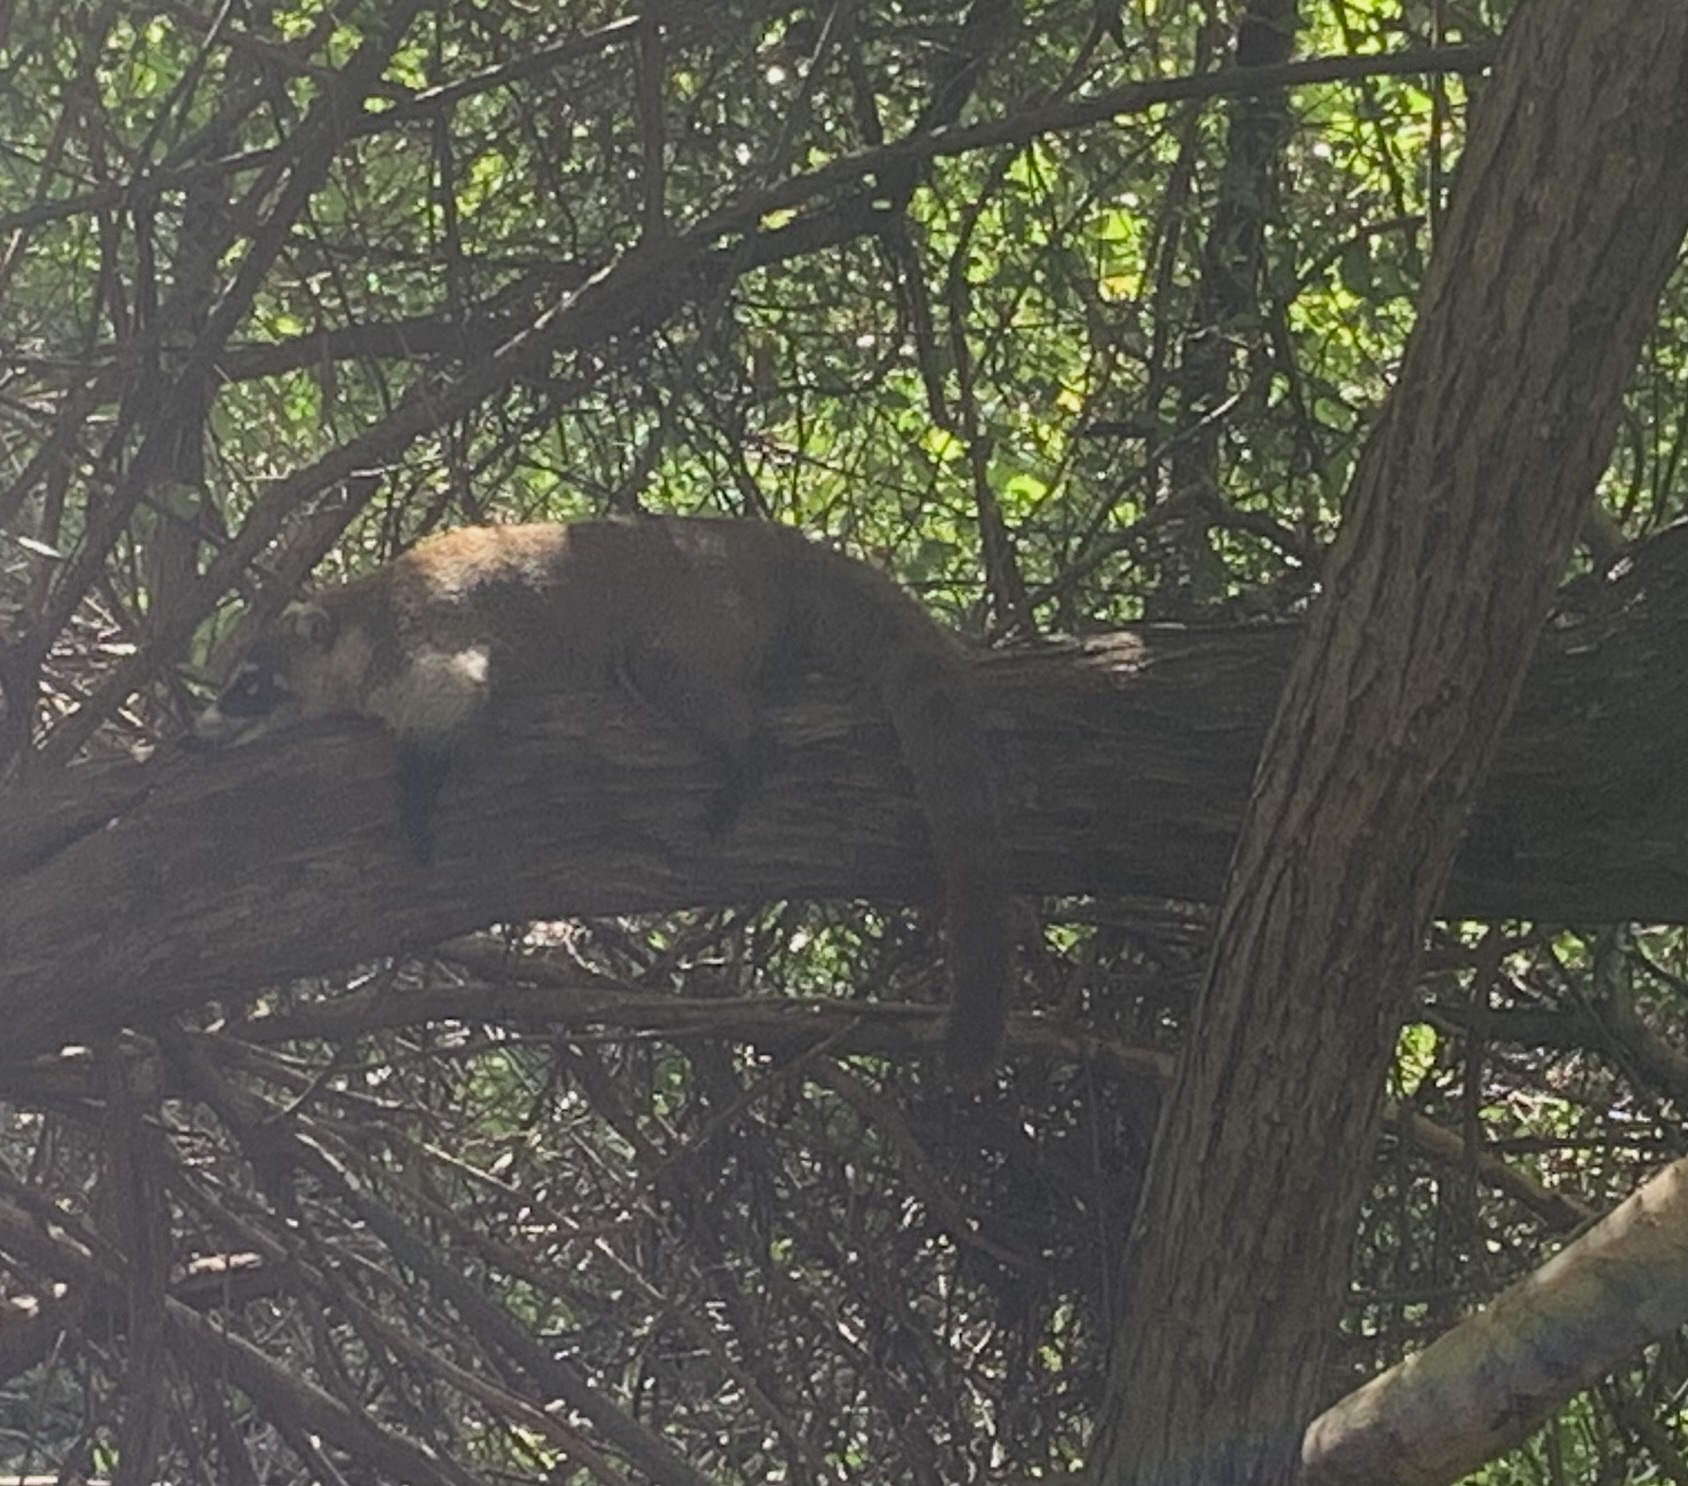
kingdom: Animalia
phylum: Chordata
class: Mammalia
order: Carnivora
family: Procyonidae
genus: Nasua
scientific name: Nasua narica
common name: White-nosed coati
